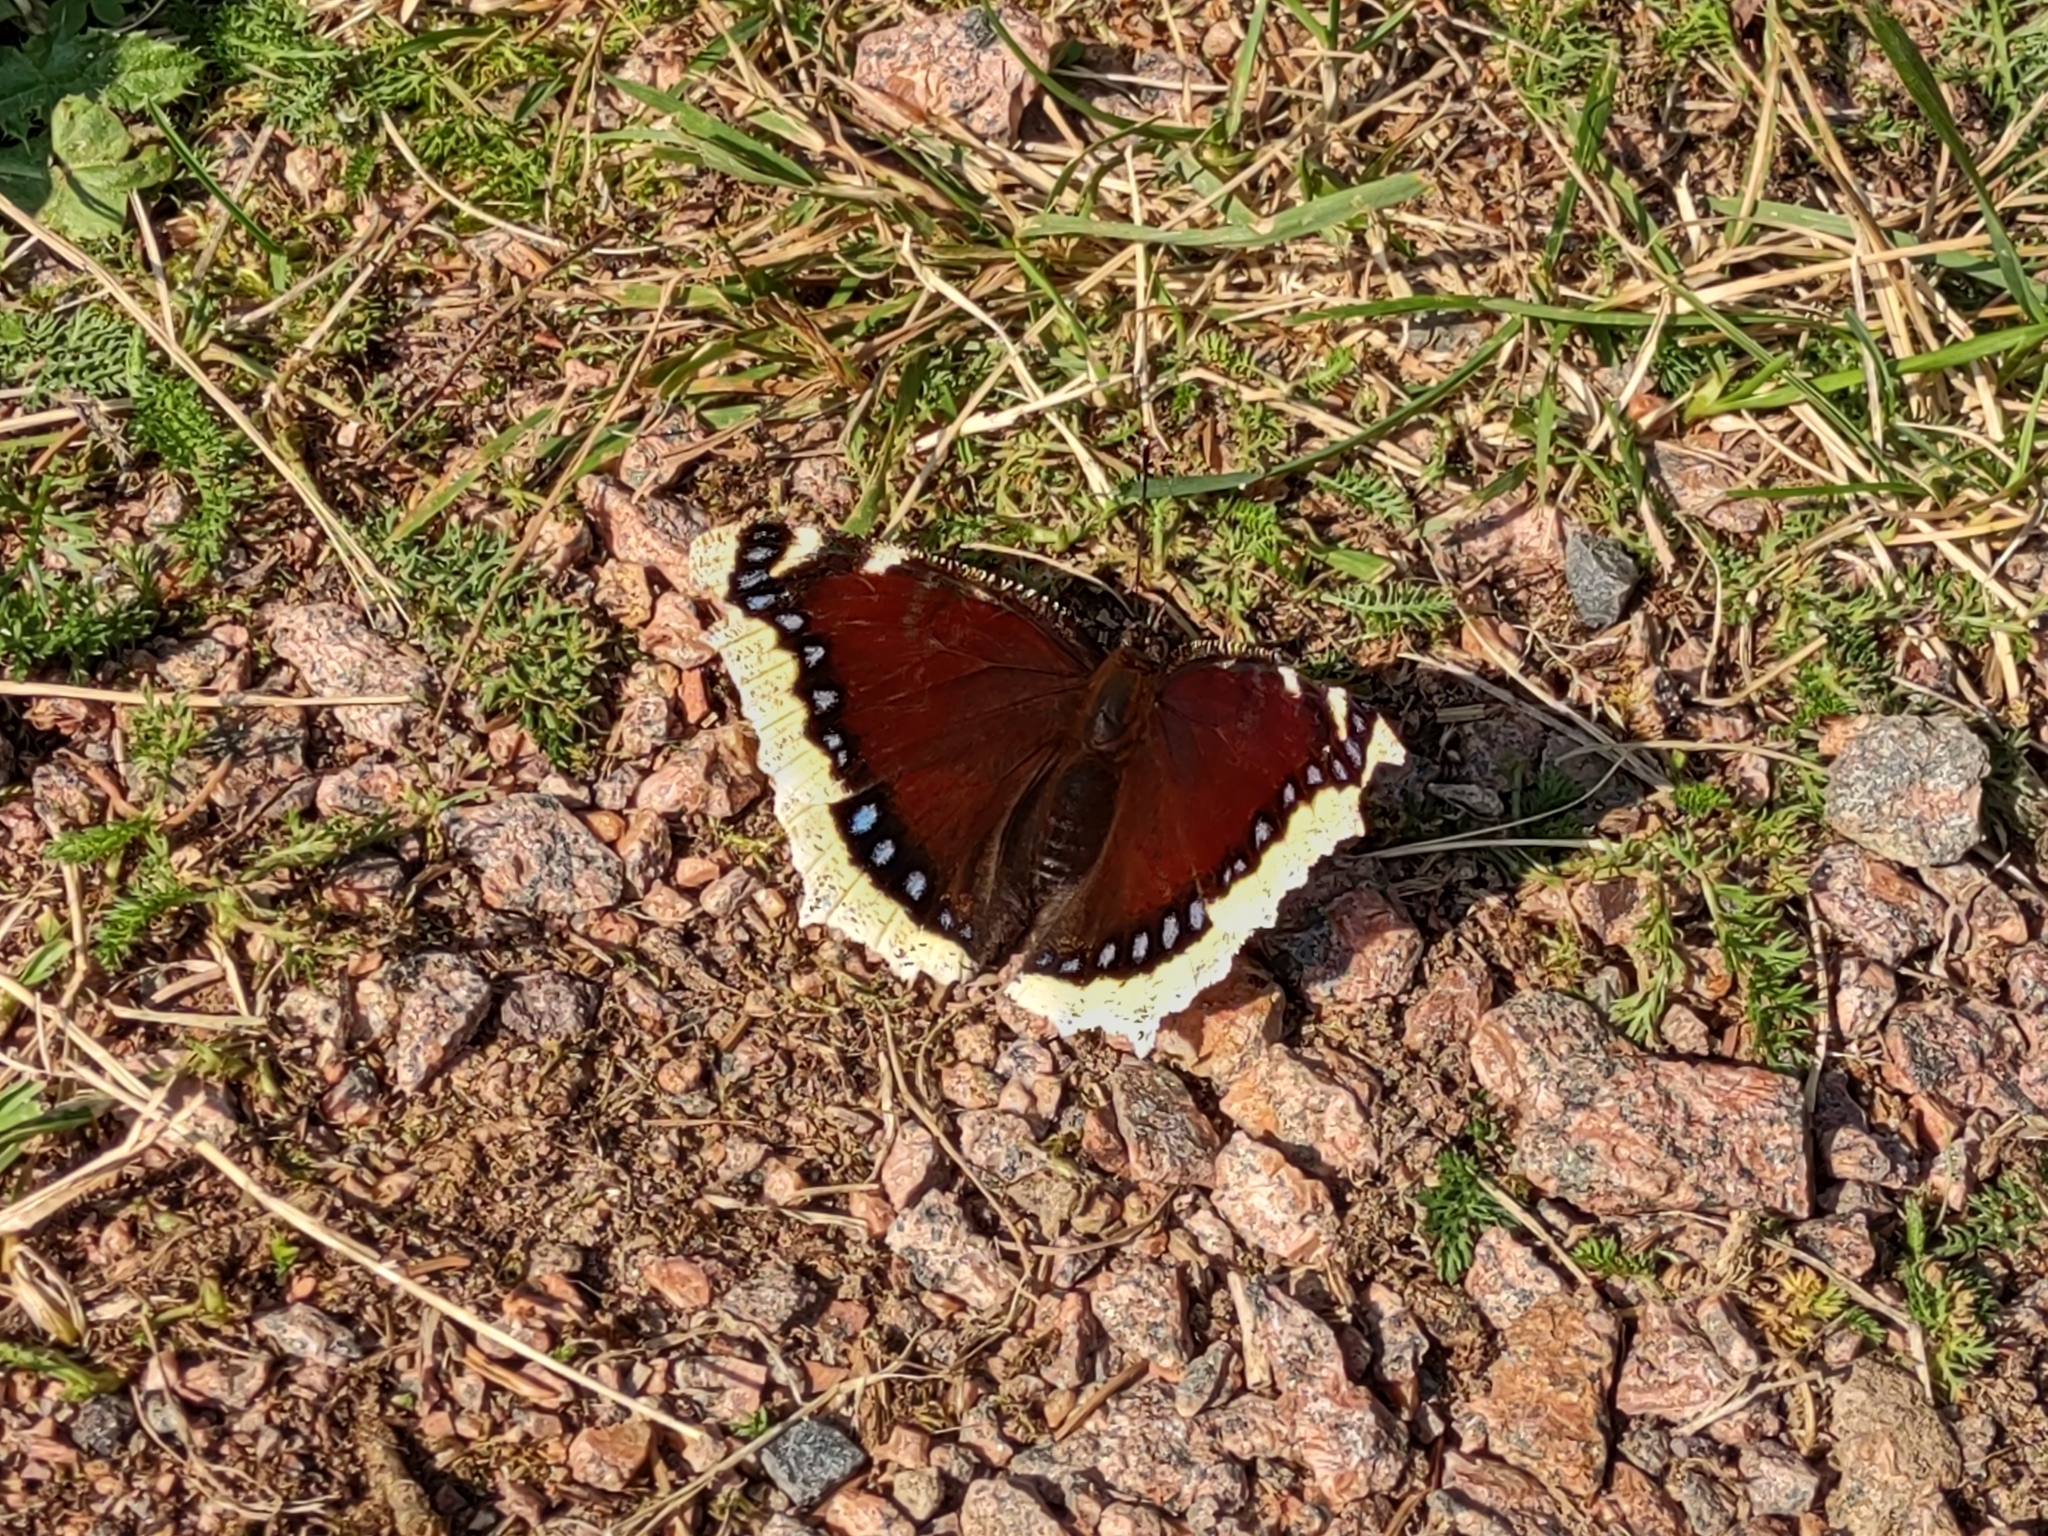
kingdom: Animalia
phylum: Arthropoda
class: Insecta
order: Lepidoptera
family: Nymphalidae
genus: Nymphalis
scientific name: Nymphalis antiopa
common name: Camberwell beauty
